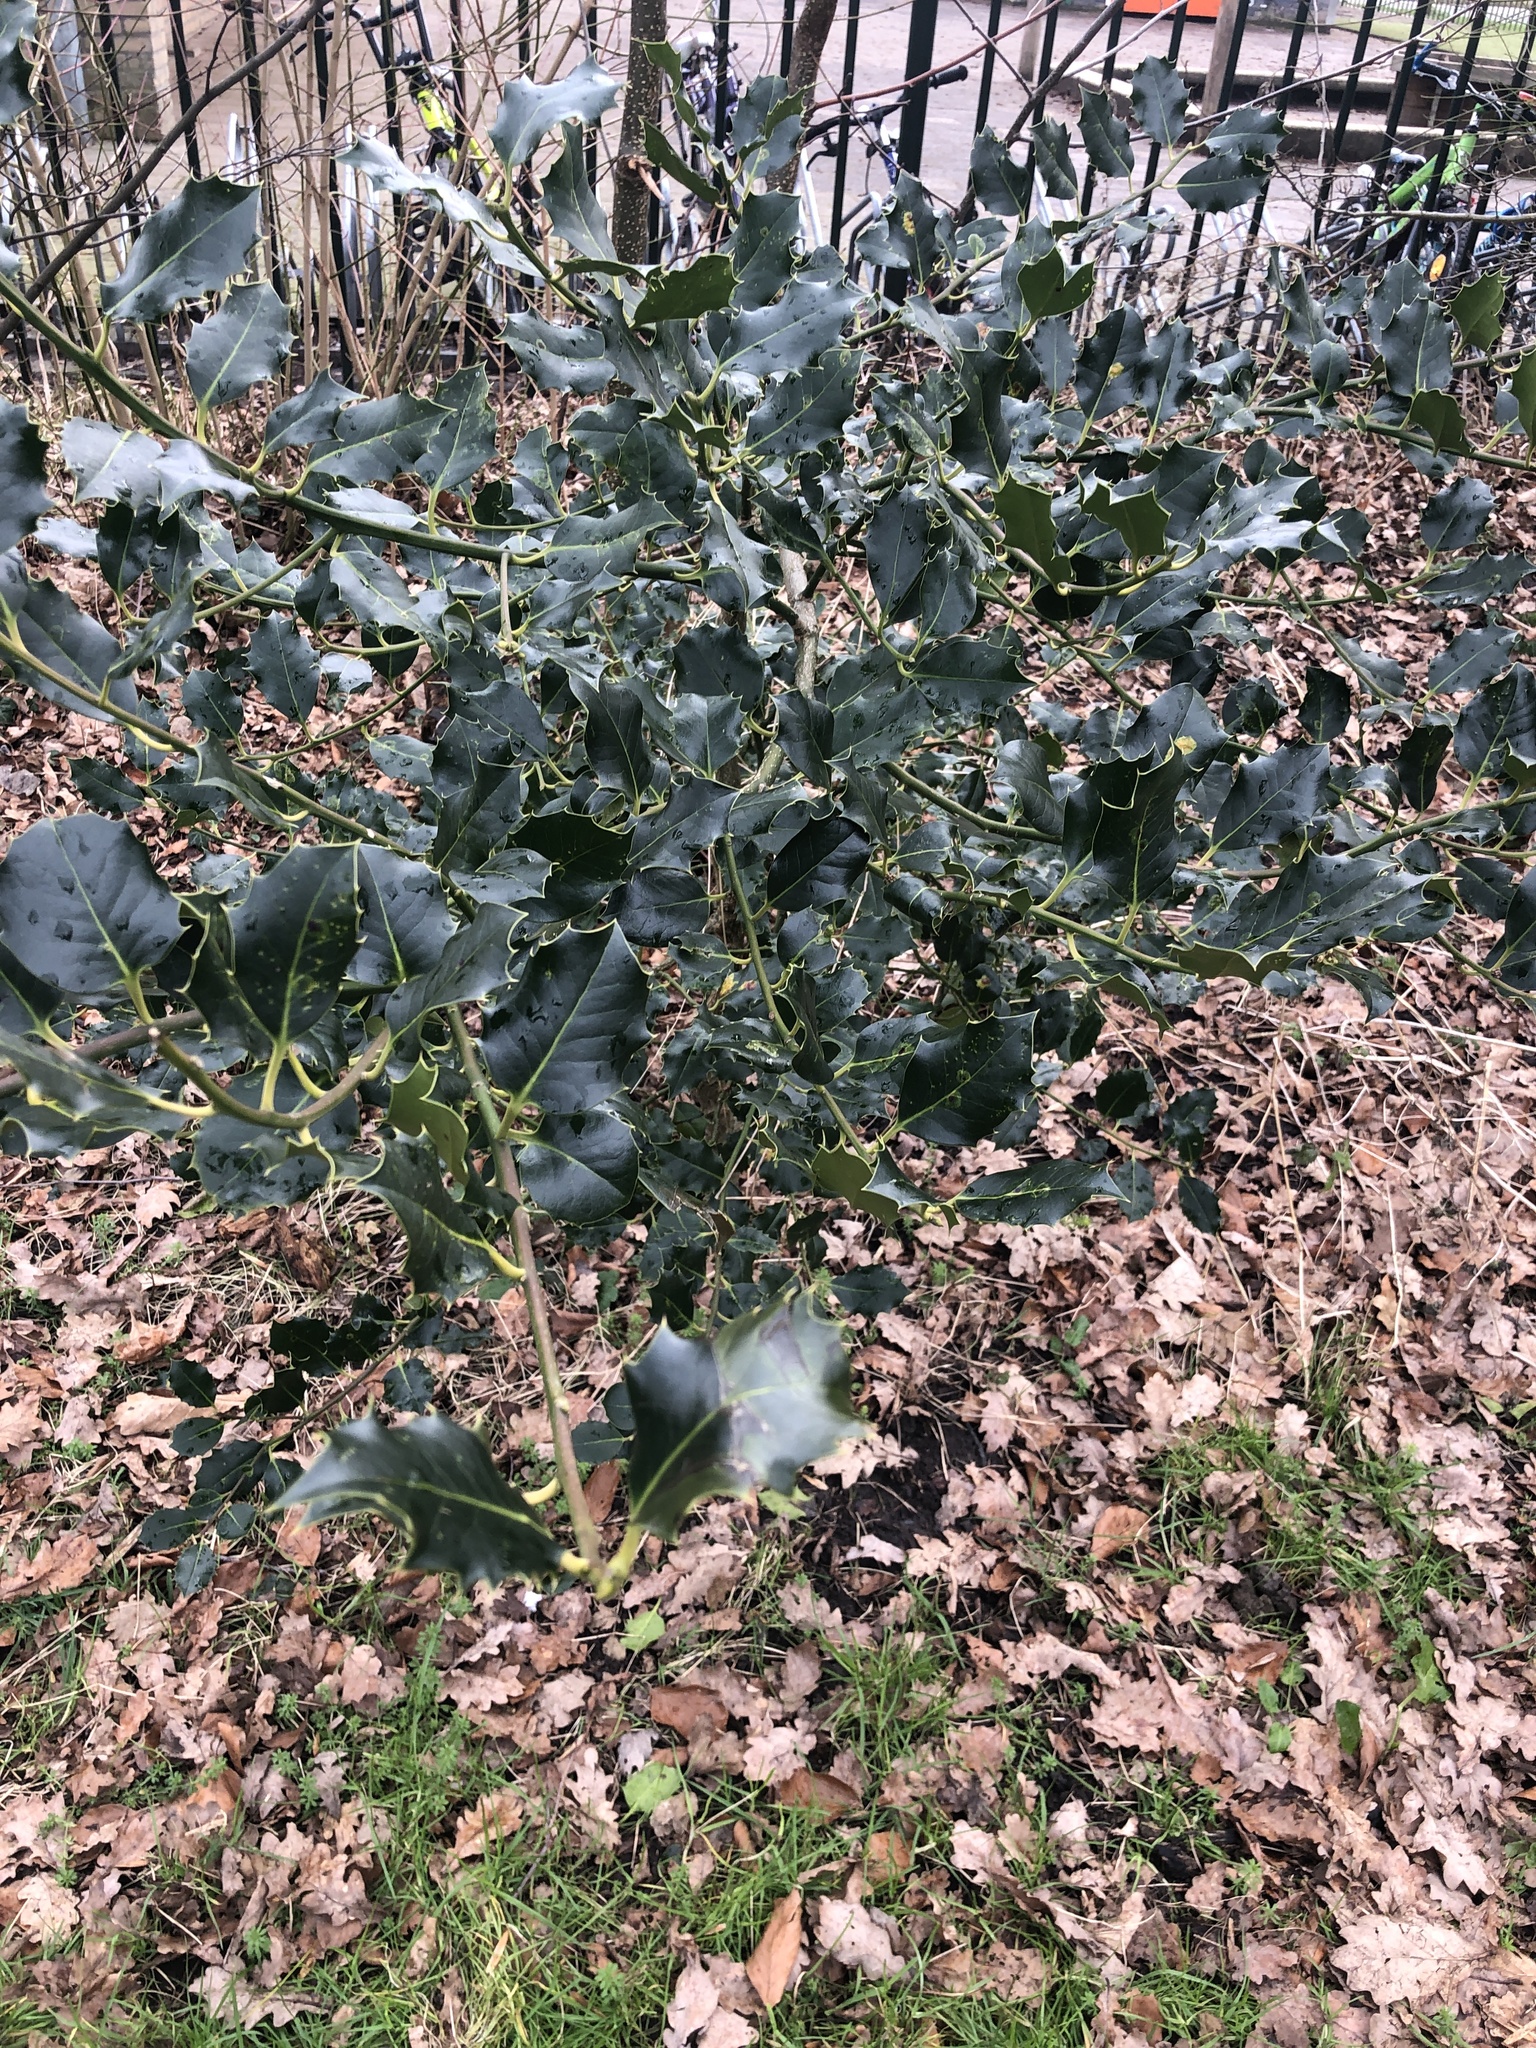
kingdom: Plantae
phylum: Tracheophyta
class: Magnoliopsida
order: Aquifoliales
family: Aquifoliaceae
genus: Ilex
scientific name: Ilex aquifolium
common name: English holly
